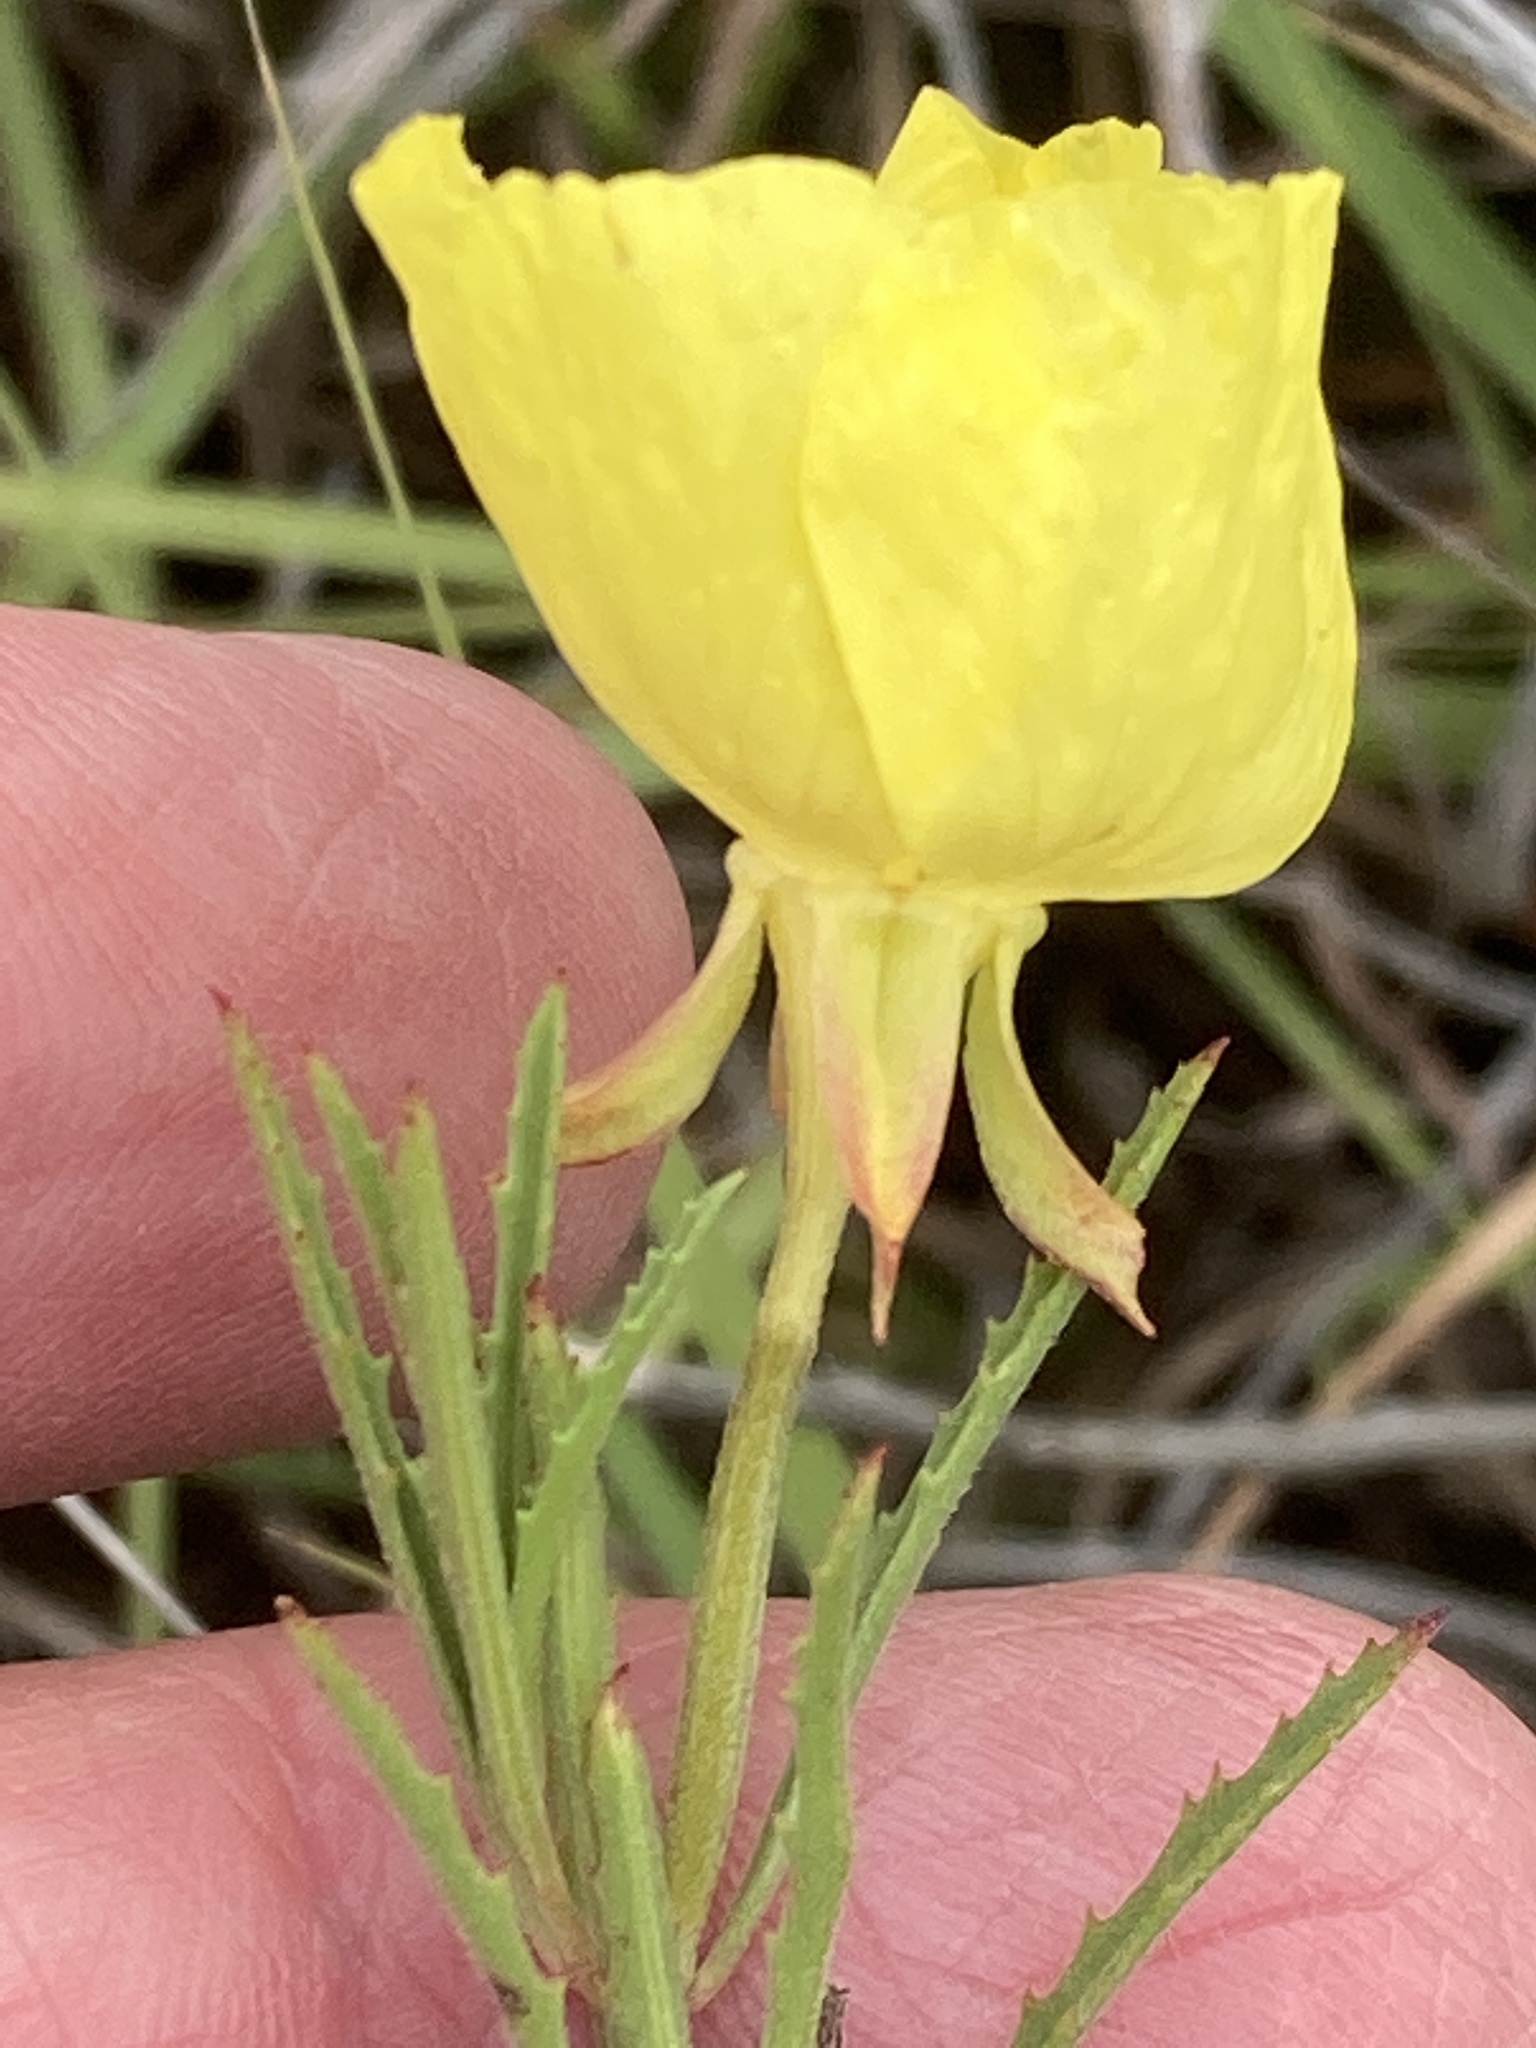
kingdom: Plantae
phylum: Tracheophyta
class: Magnoliopsida
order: Myrtales
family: Onagraceae
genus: Oenothera
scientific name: Oenothera
